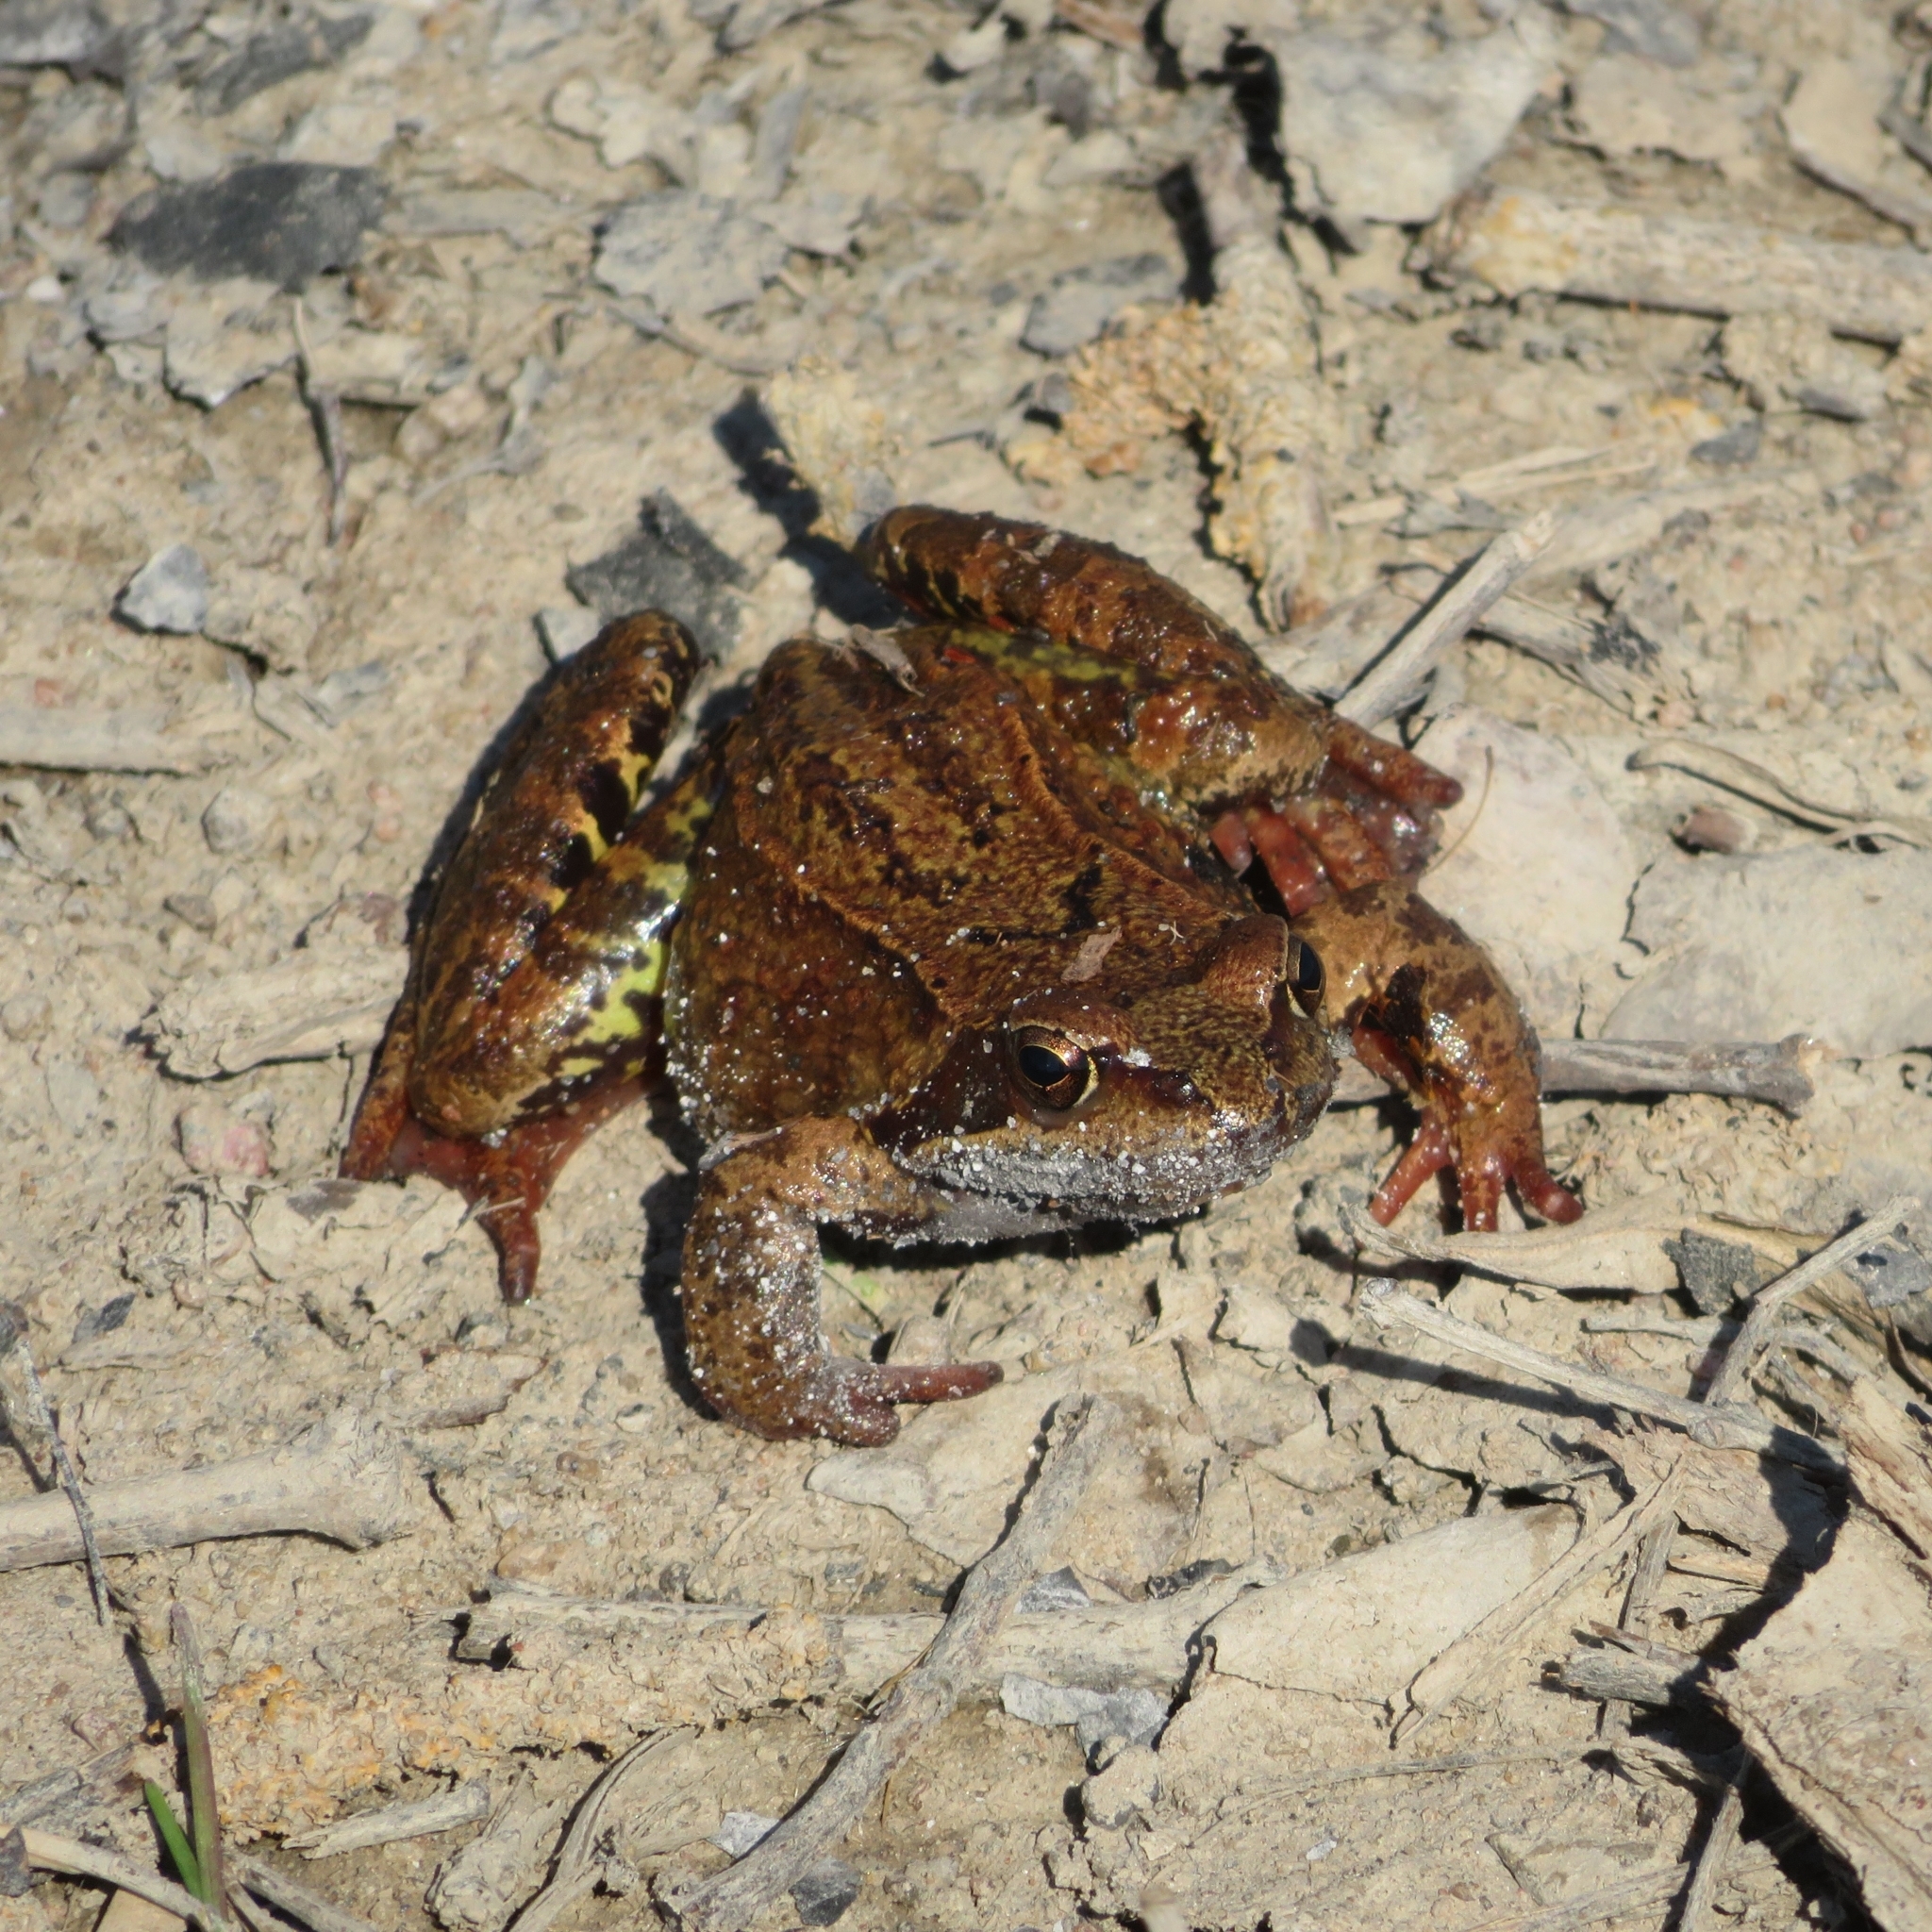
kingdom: Animalia
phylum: Chordata
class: Amphibia
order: Anura
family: Ranidae
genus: Rana
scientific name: Rana temporaria
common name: Common frog
